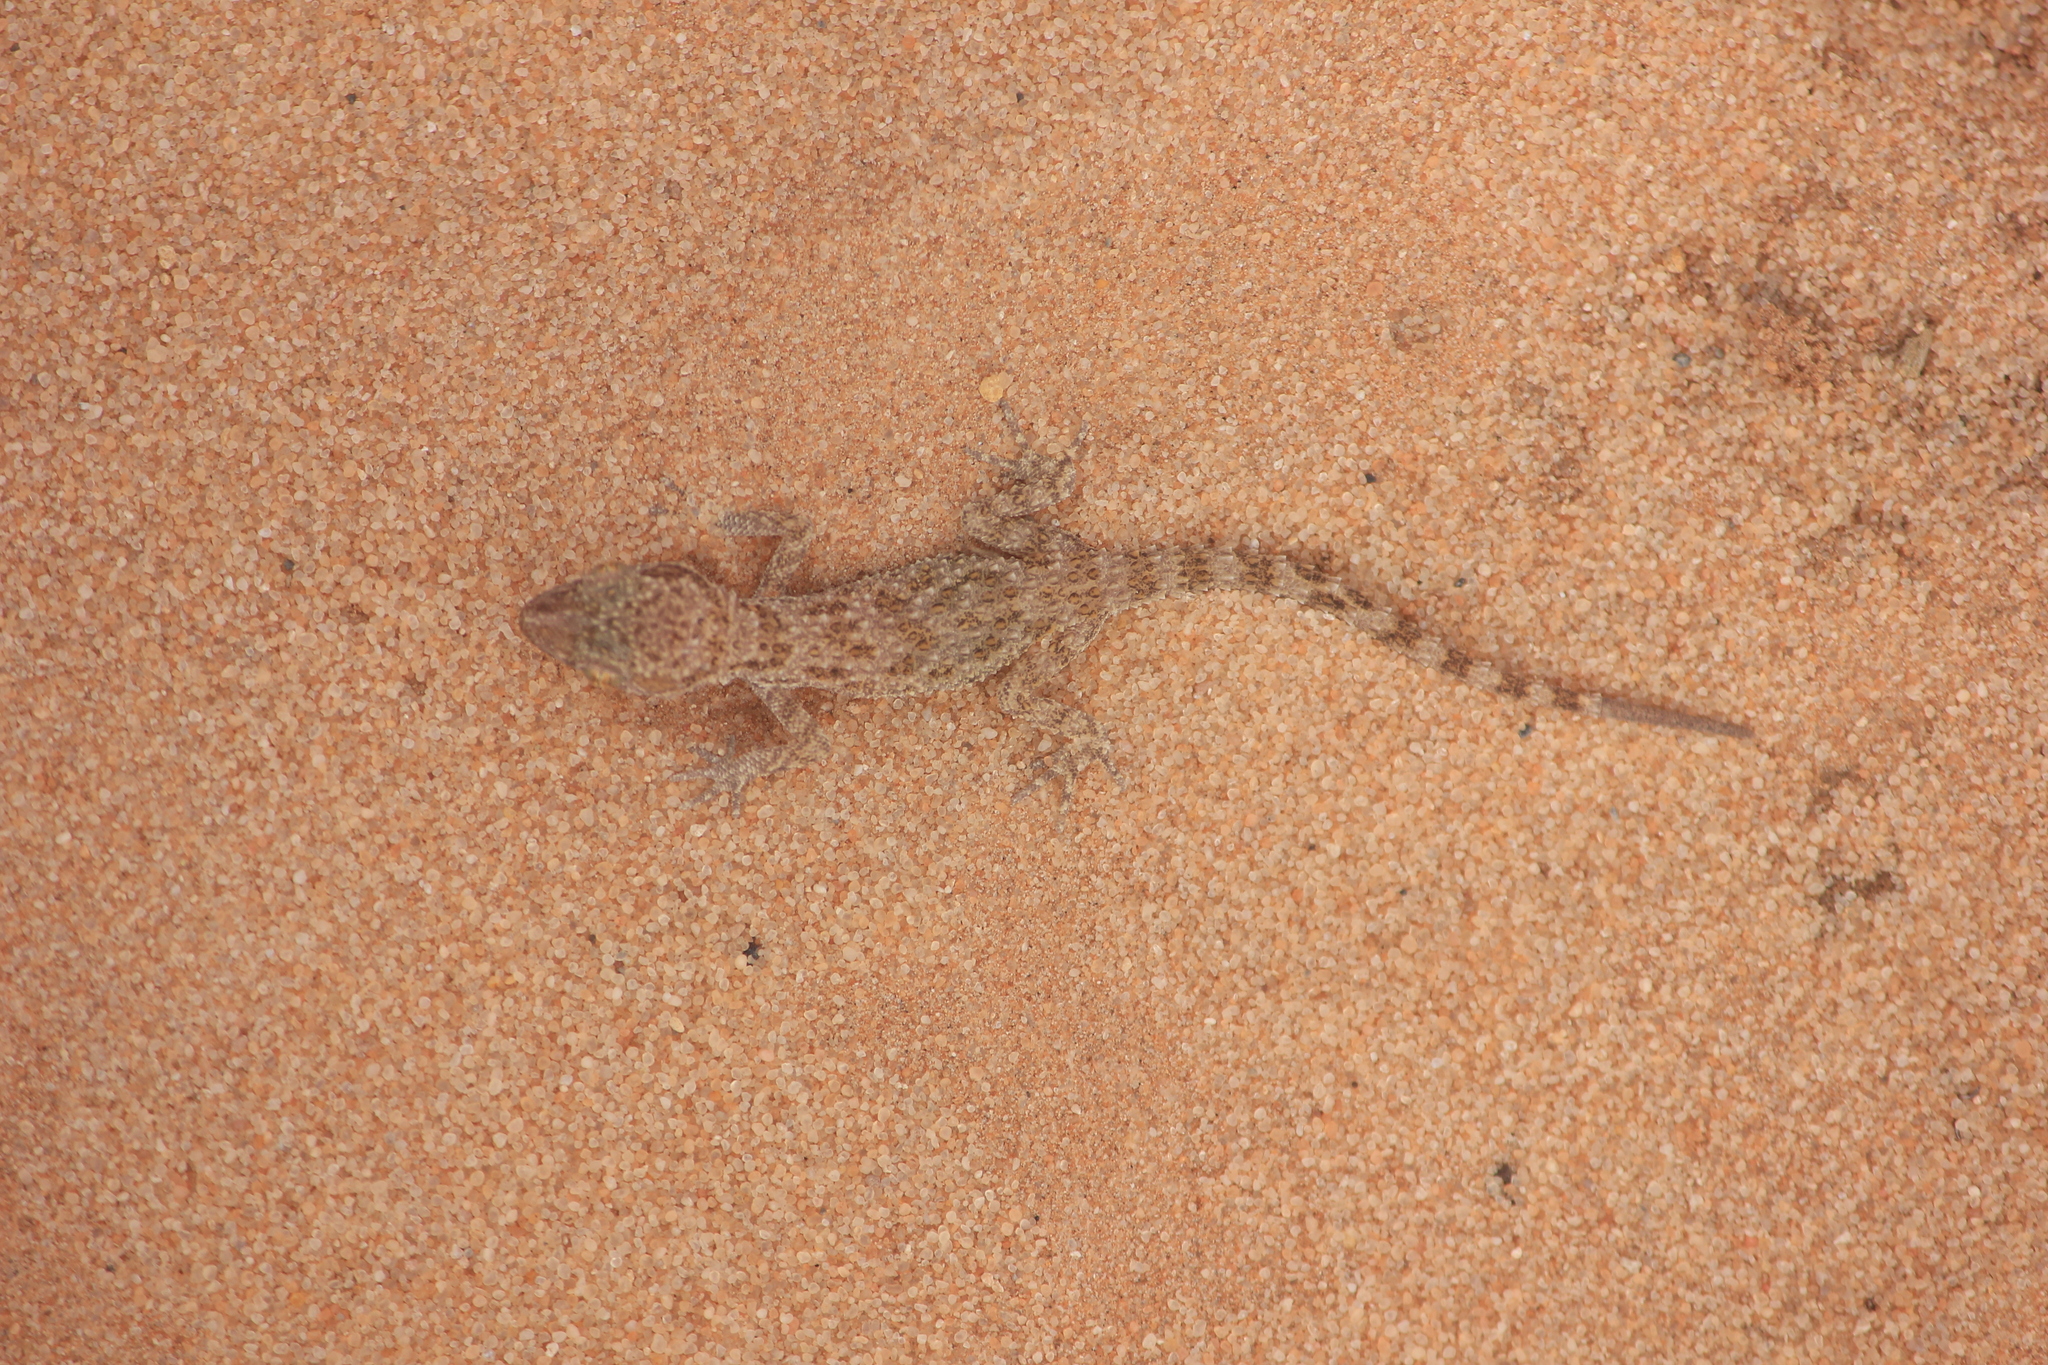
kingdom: Animalia
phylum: Chordata
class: Squamata
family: Gekkonidae
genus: Bunopus
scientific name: Bunopus tuberculatus
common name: Southern tuberculated gecko
